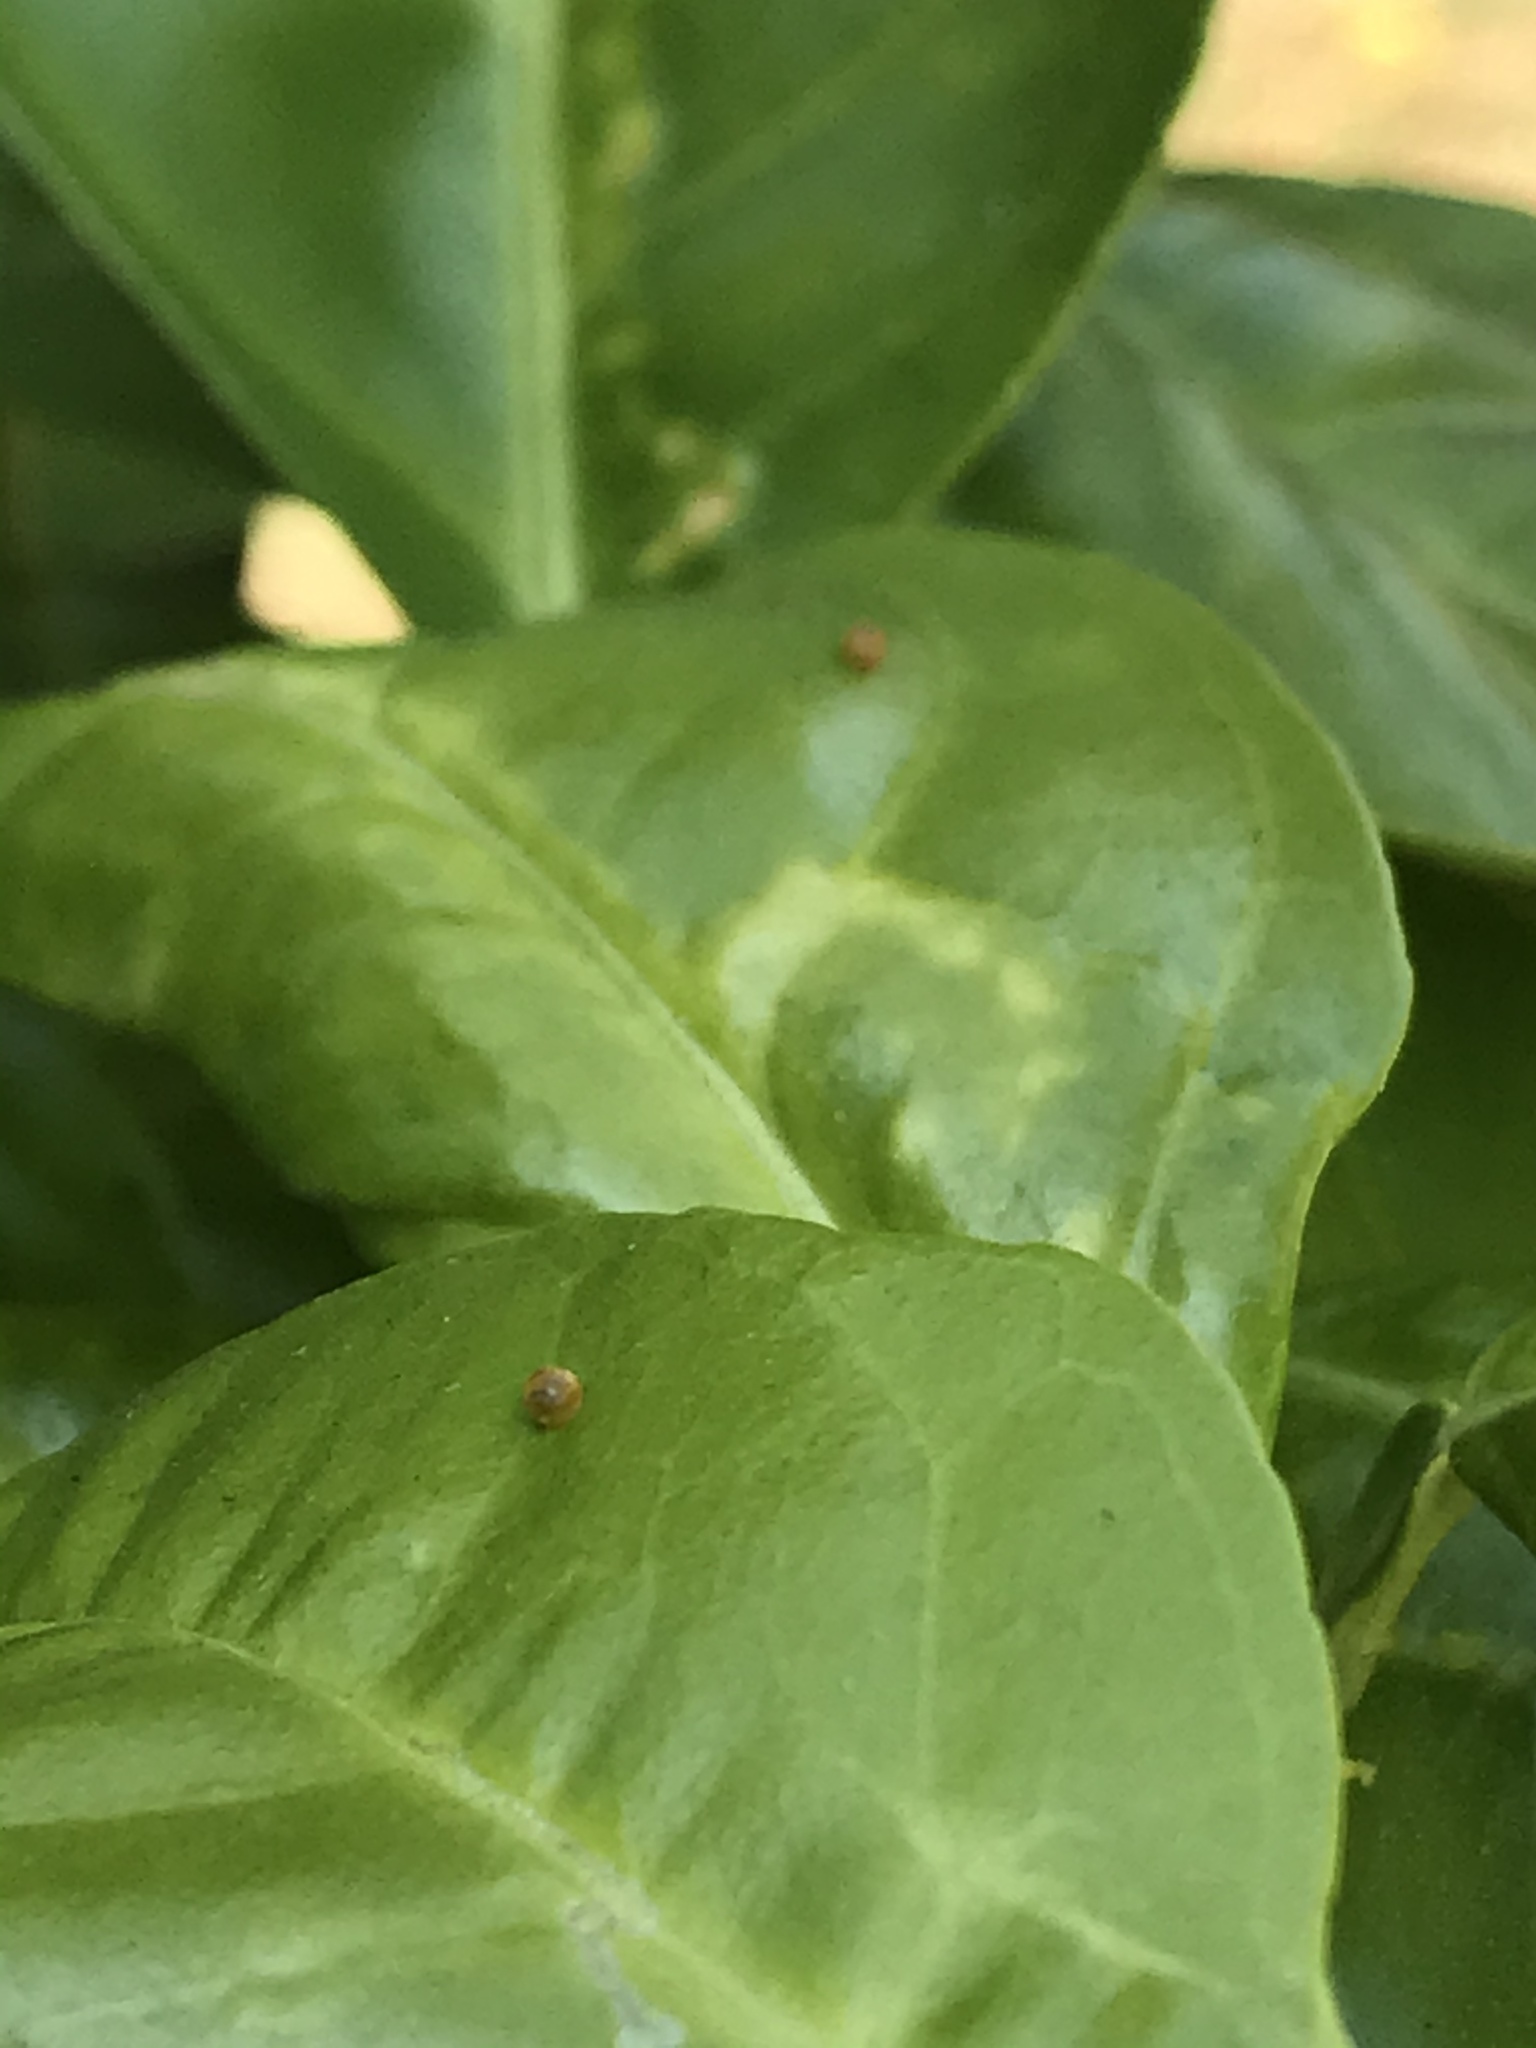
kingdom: Animalia
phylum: Arthropoda
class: Insecta
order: Lepidoptera
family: Papilionidae
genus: Papilio
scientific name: Papilio rumiko
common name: Western giant swallowtail
